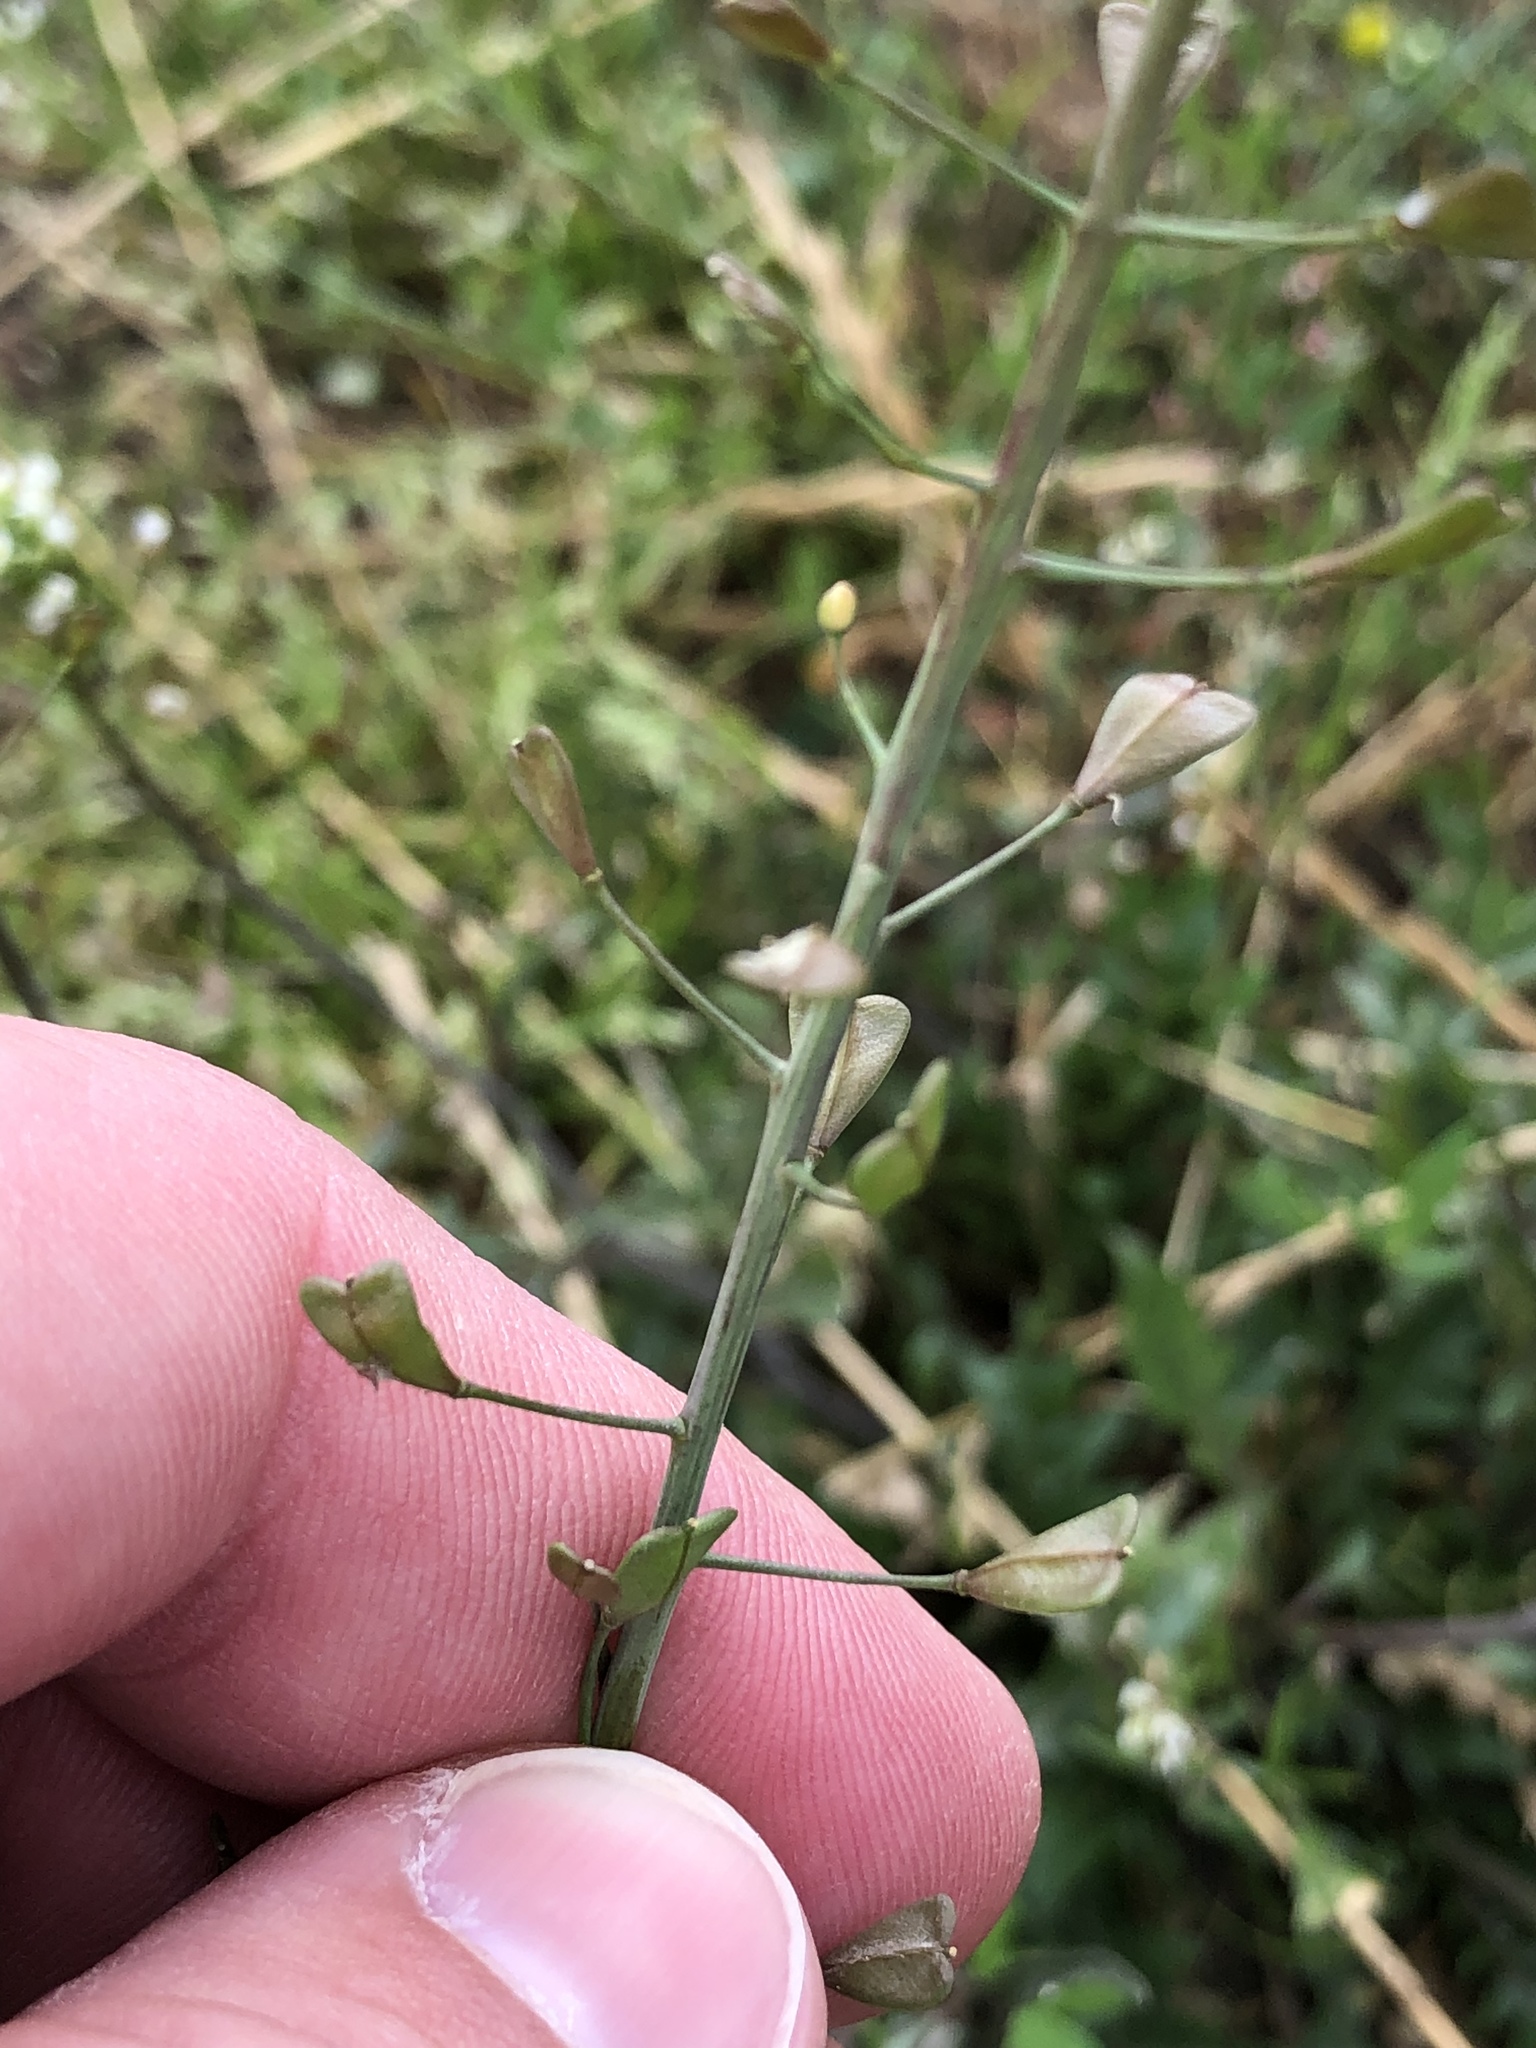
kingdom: Plantae
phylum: Tracheophyta
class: Magnoliopsida
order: Brassicales
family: Brassicaceae
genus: Capsella
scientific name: Capsella bursa-pastoris
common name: Shepherd's purse
